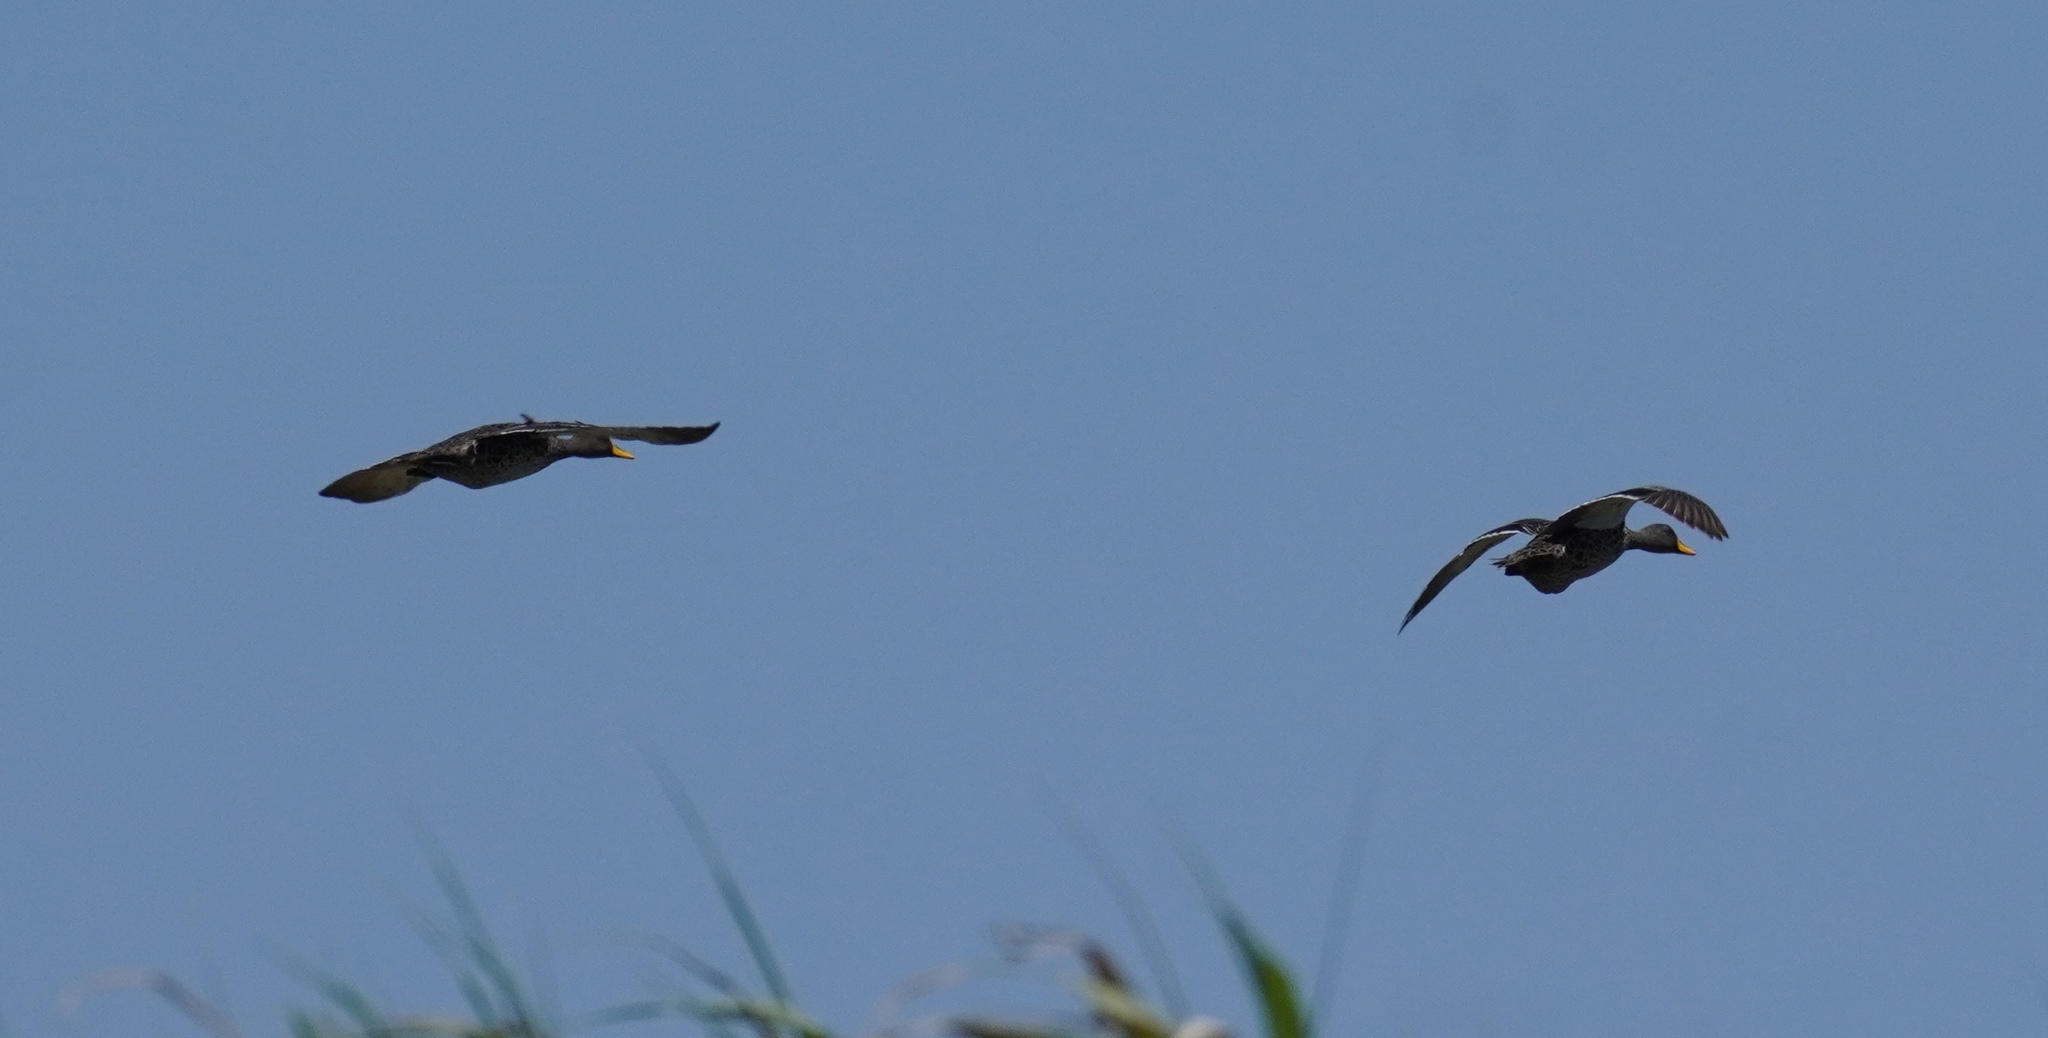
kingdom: Animalia
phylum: Chordata
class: Aves
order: Anseriformes
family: Anatidae
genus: Anas
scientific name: Anas undulata
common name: Yellow-billed duck
